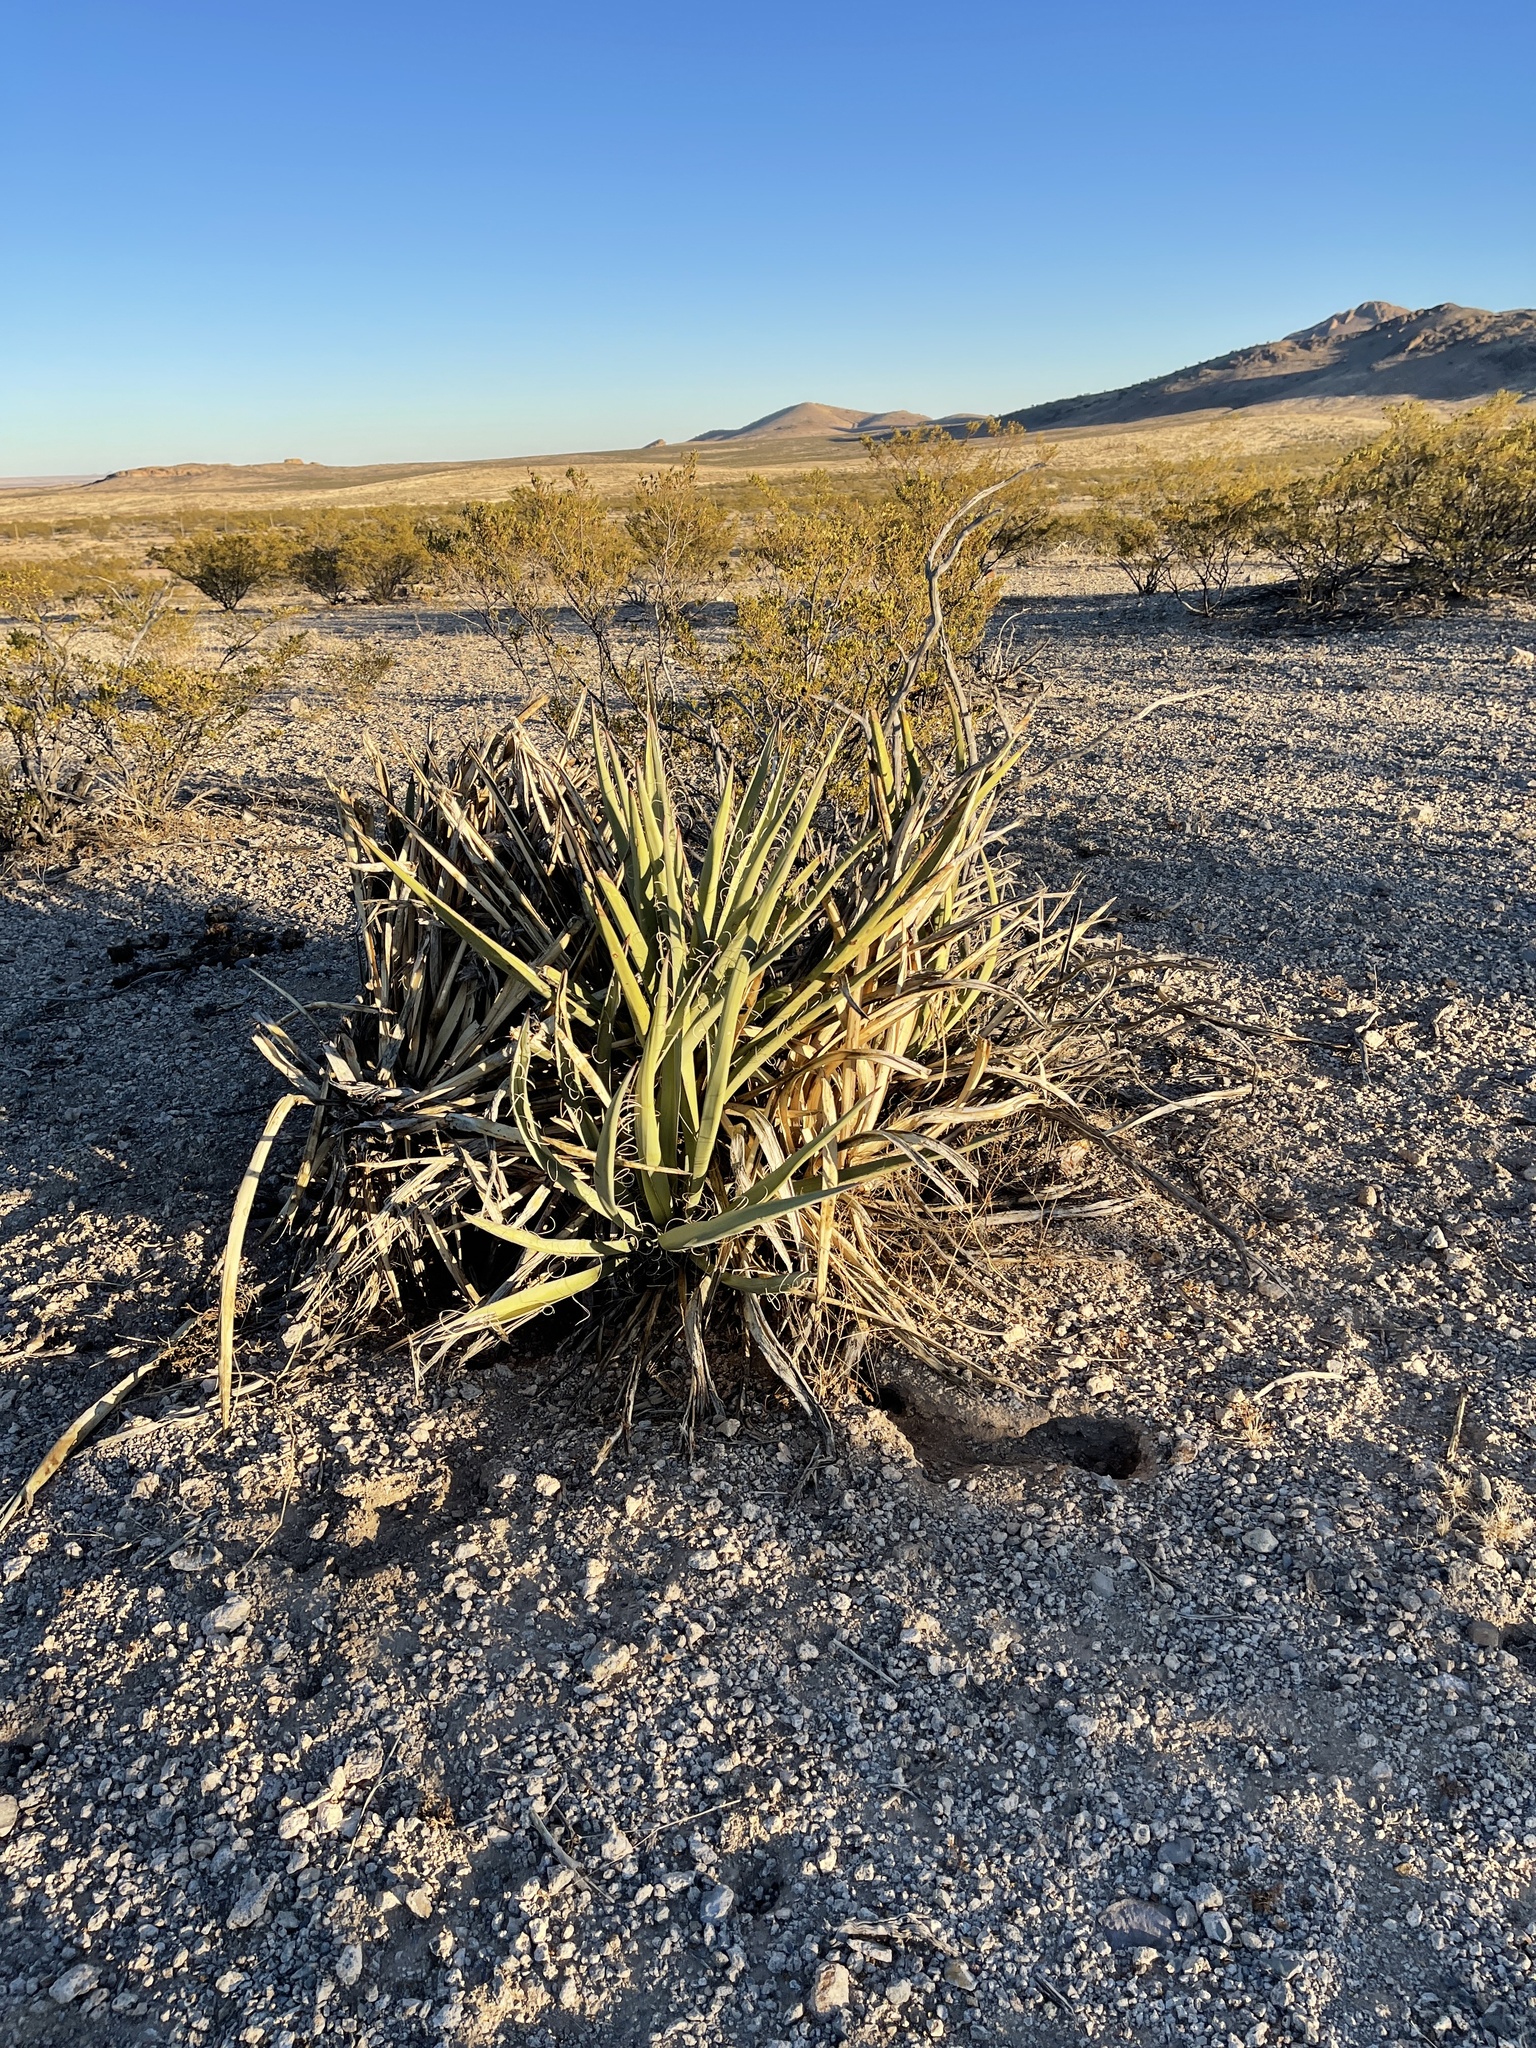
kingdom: Plantae
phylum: Tracheophyta
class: Liliopsida
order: Asparagales
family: Asparagaceae
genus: Yucca
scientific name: Yucca baccata
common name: Banana yucca
